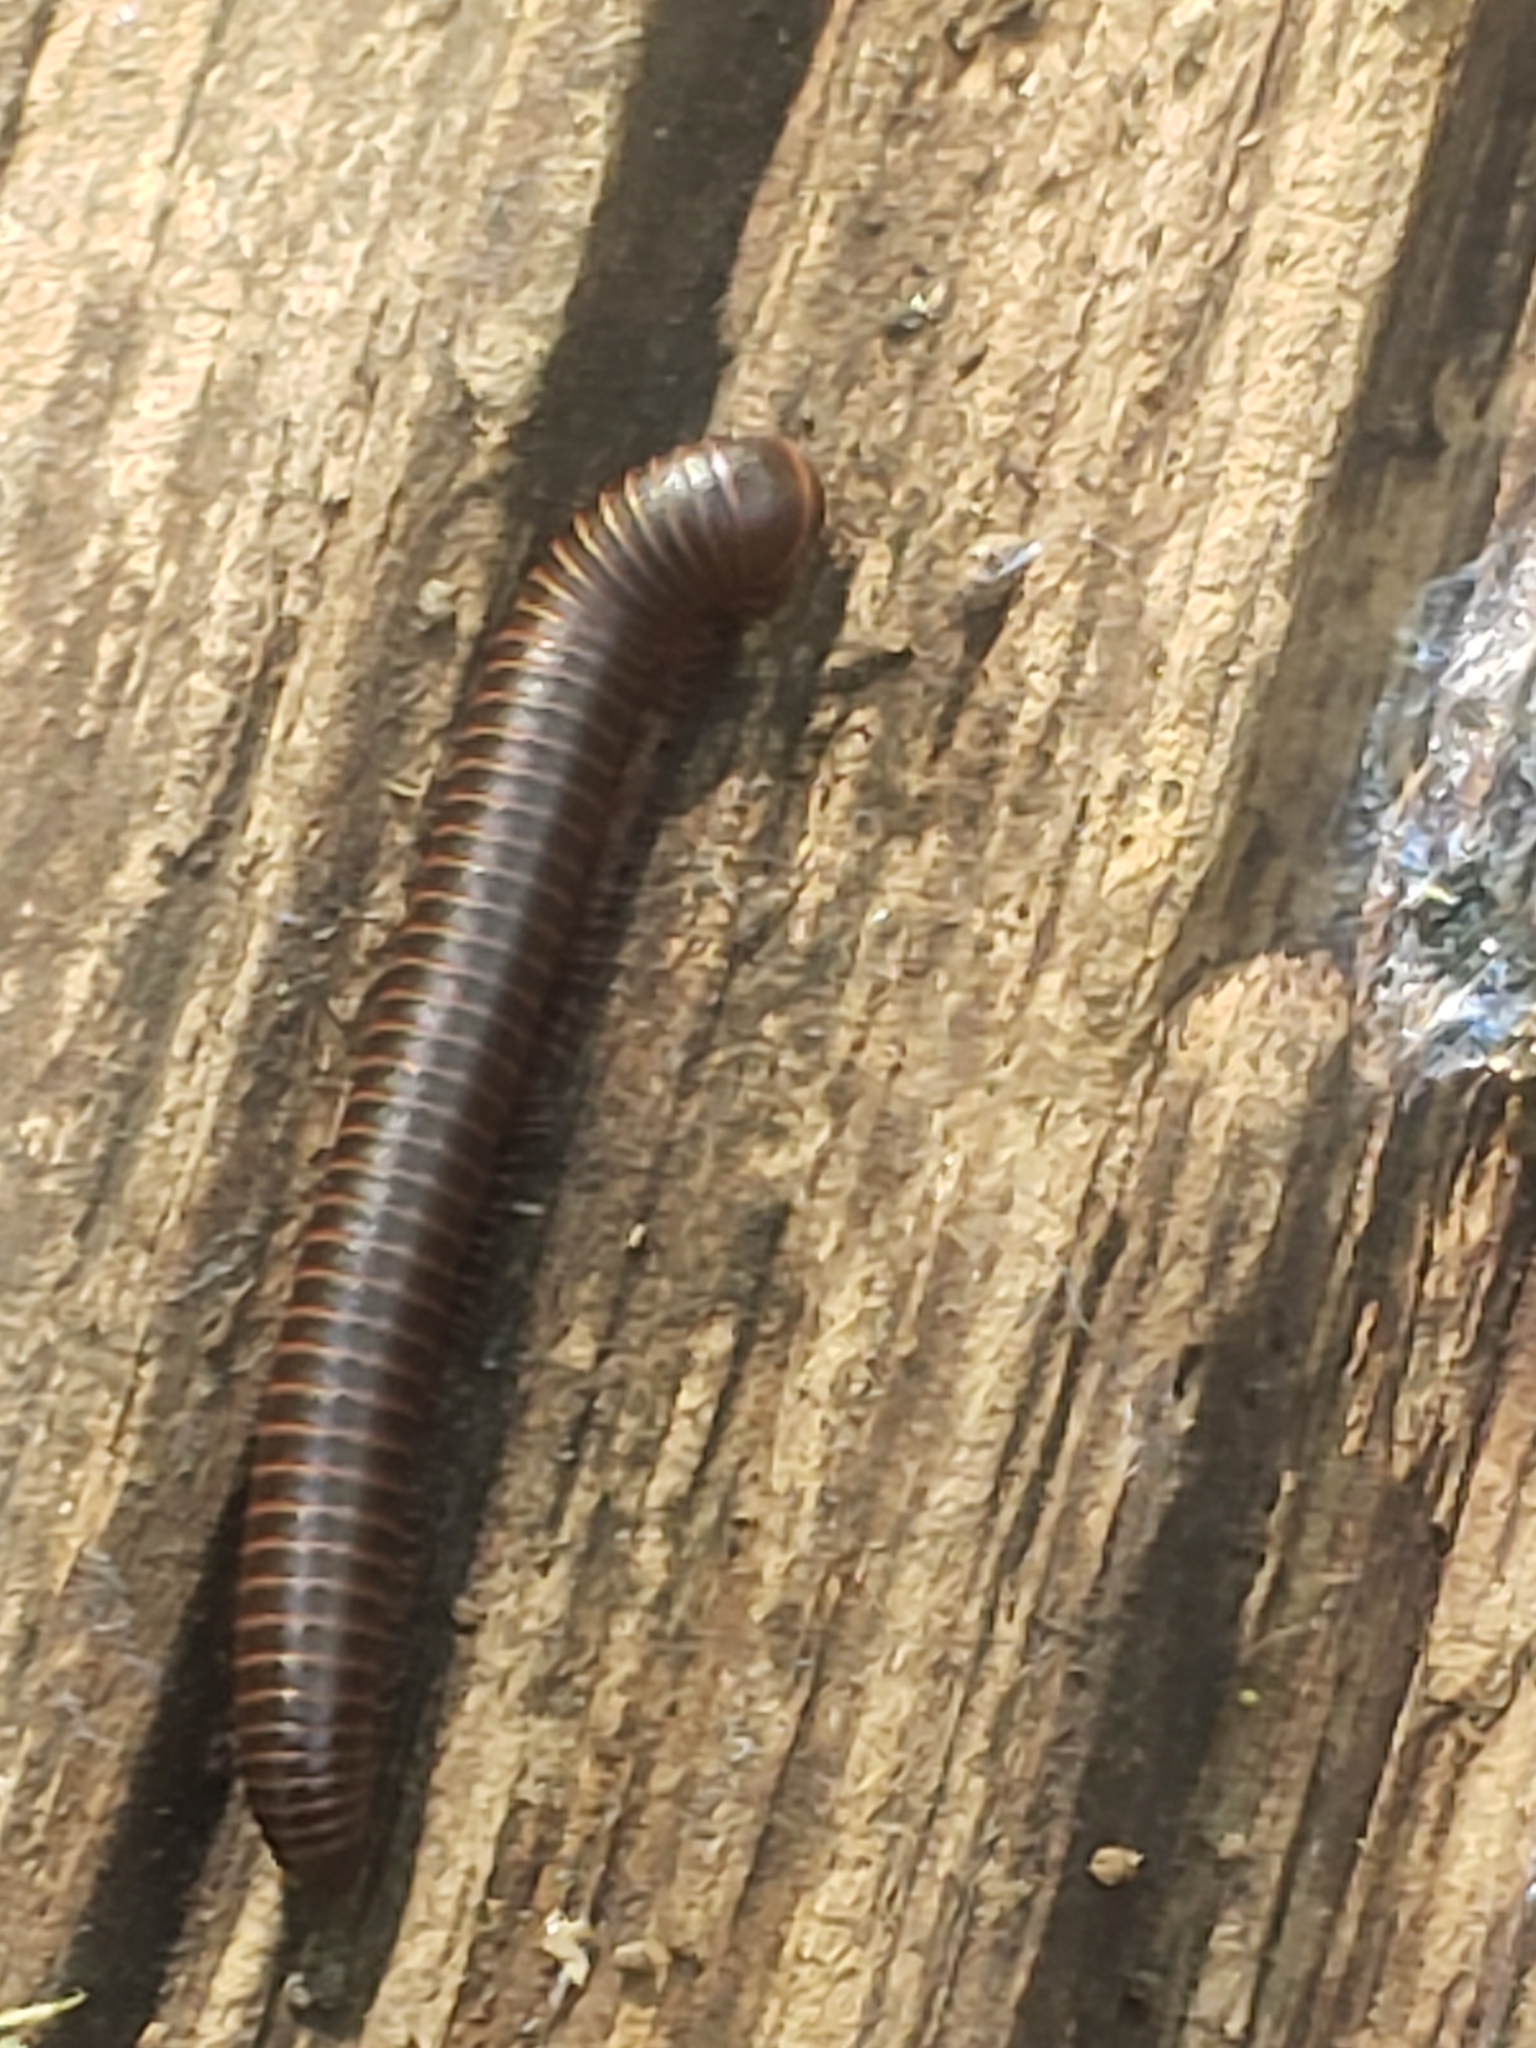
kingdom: Animalia
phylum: Arthropoda
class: Diplopoda
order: Spirobolida
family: Spirobolidae
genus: Narceus
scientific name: Narceus
